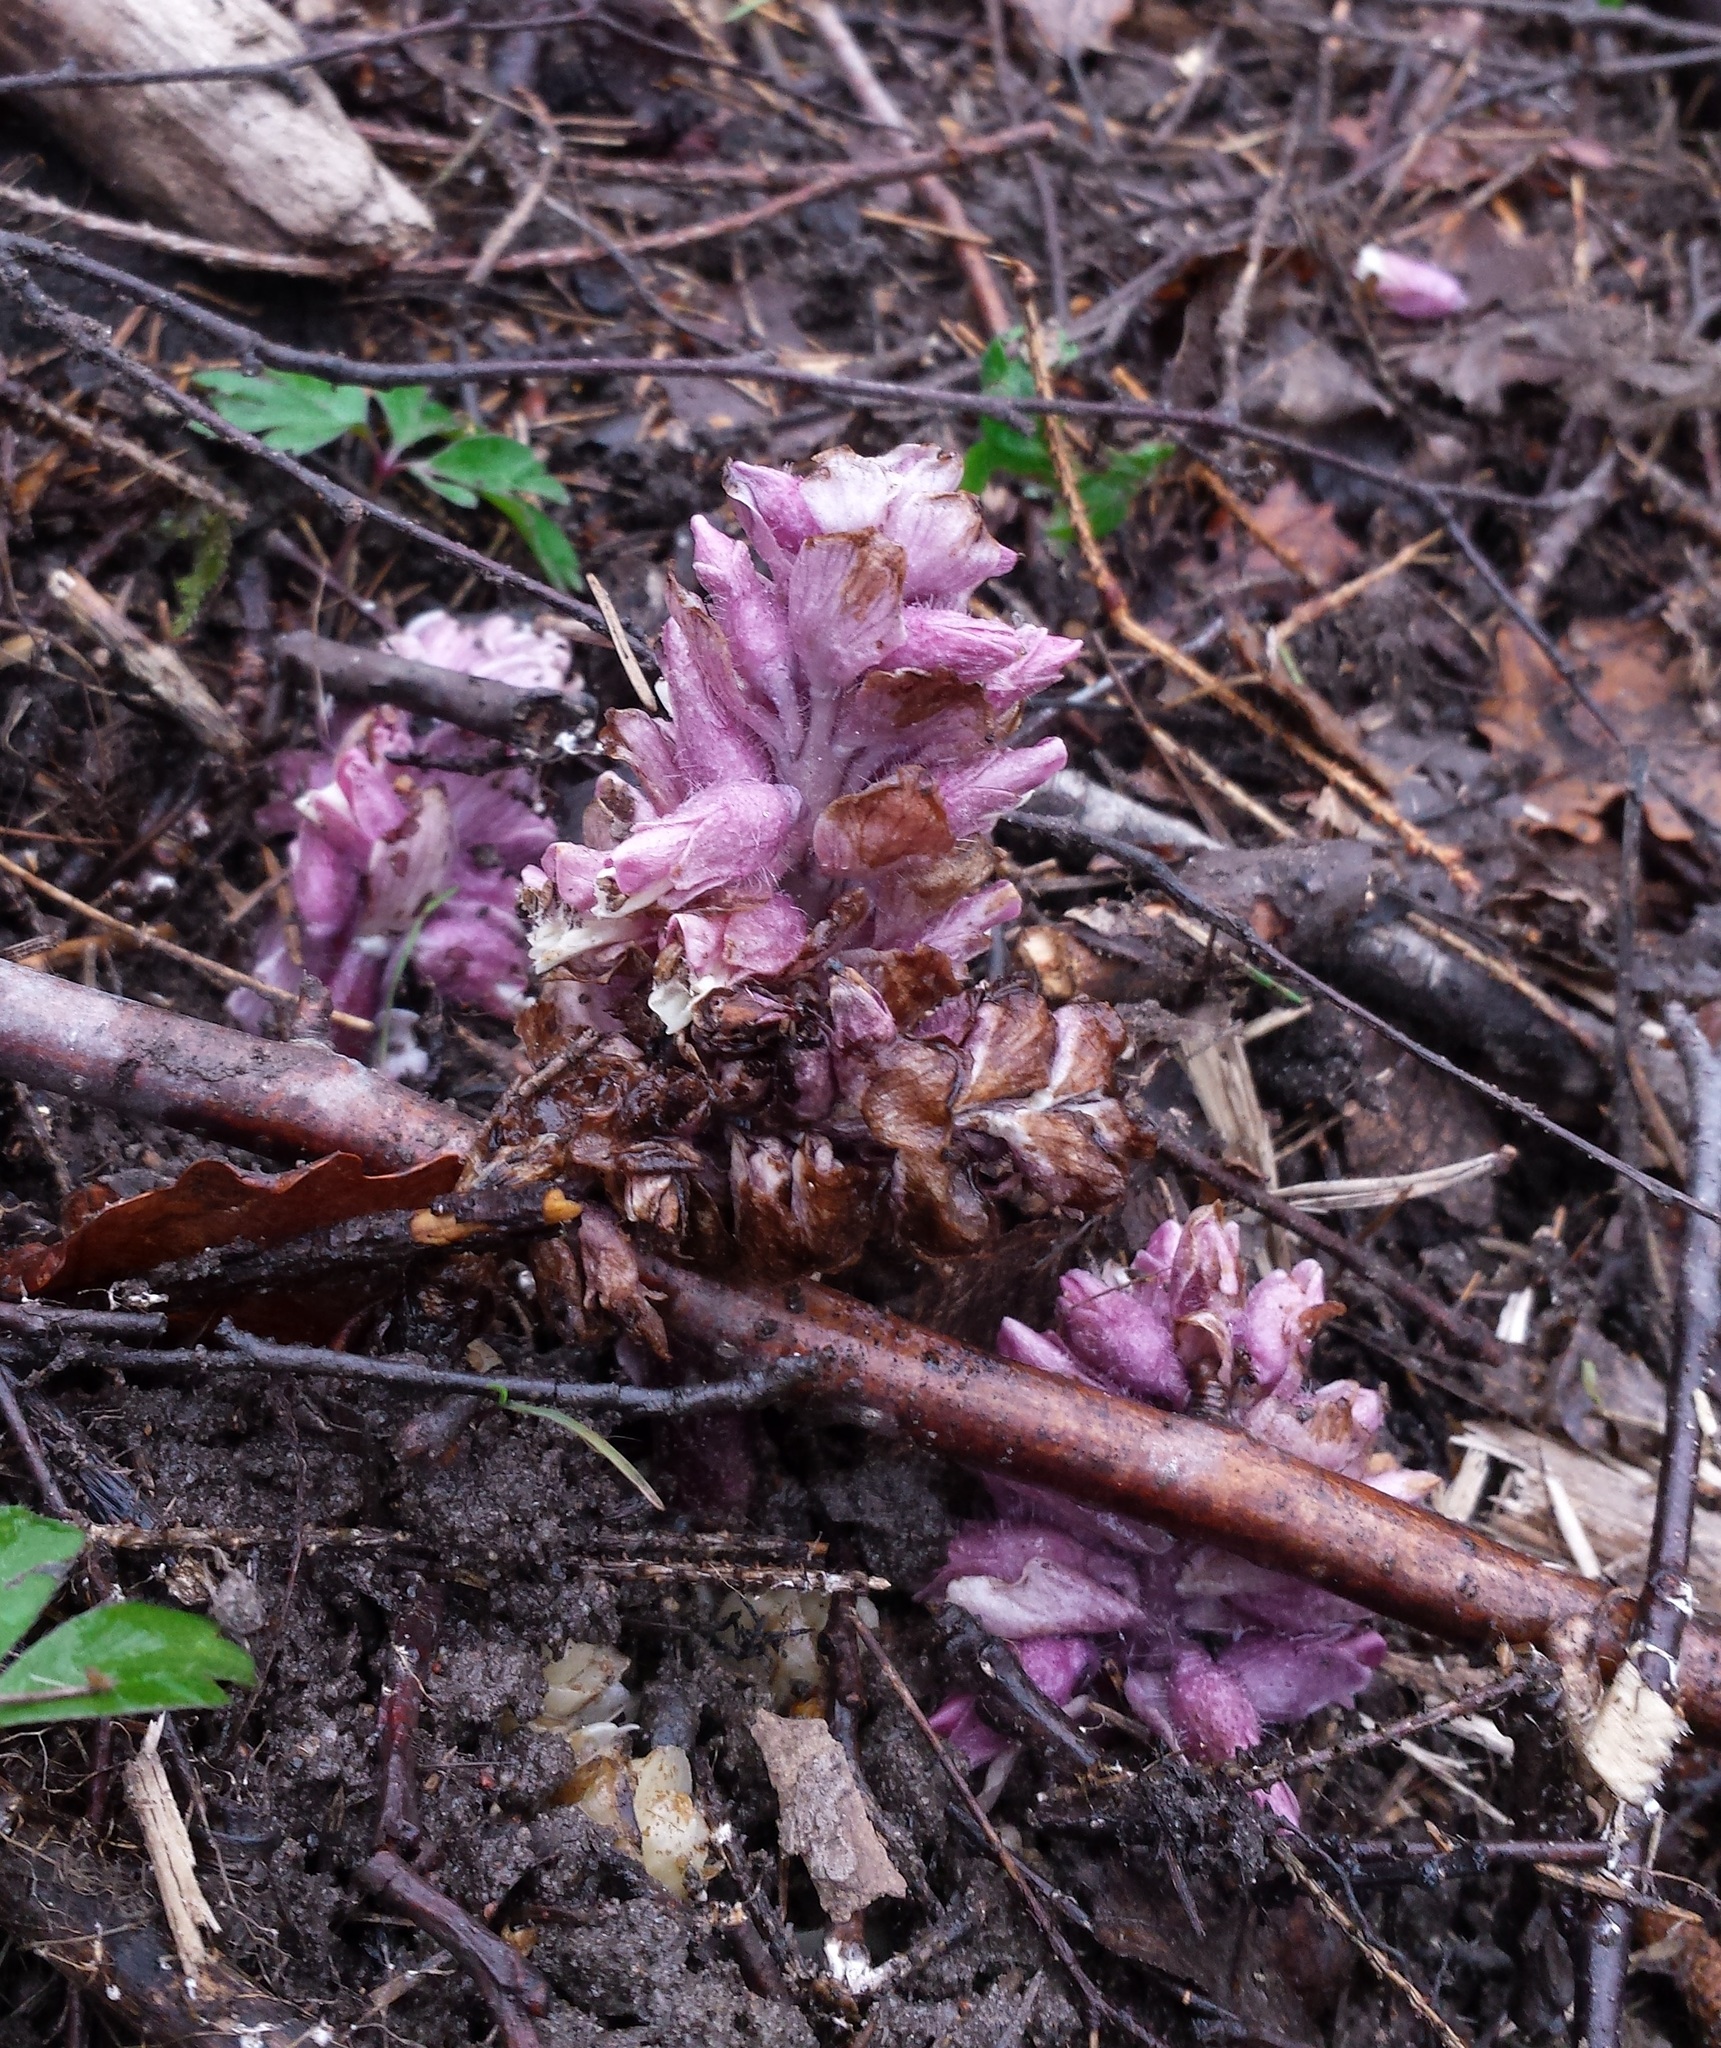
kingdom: Plantae
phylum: Tracheophyta
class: Magnoliopsida
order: Lamiales
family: Orobanchaceae
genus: Lathraea
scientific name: Lathraea squamaria
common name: Toothwort
